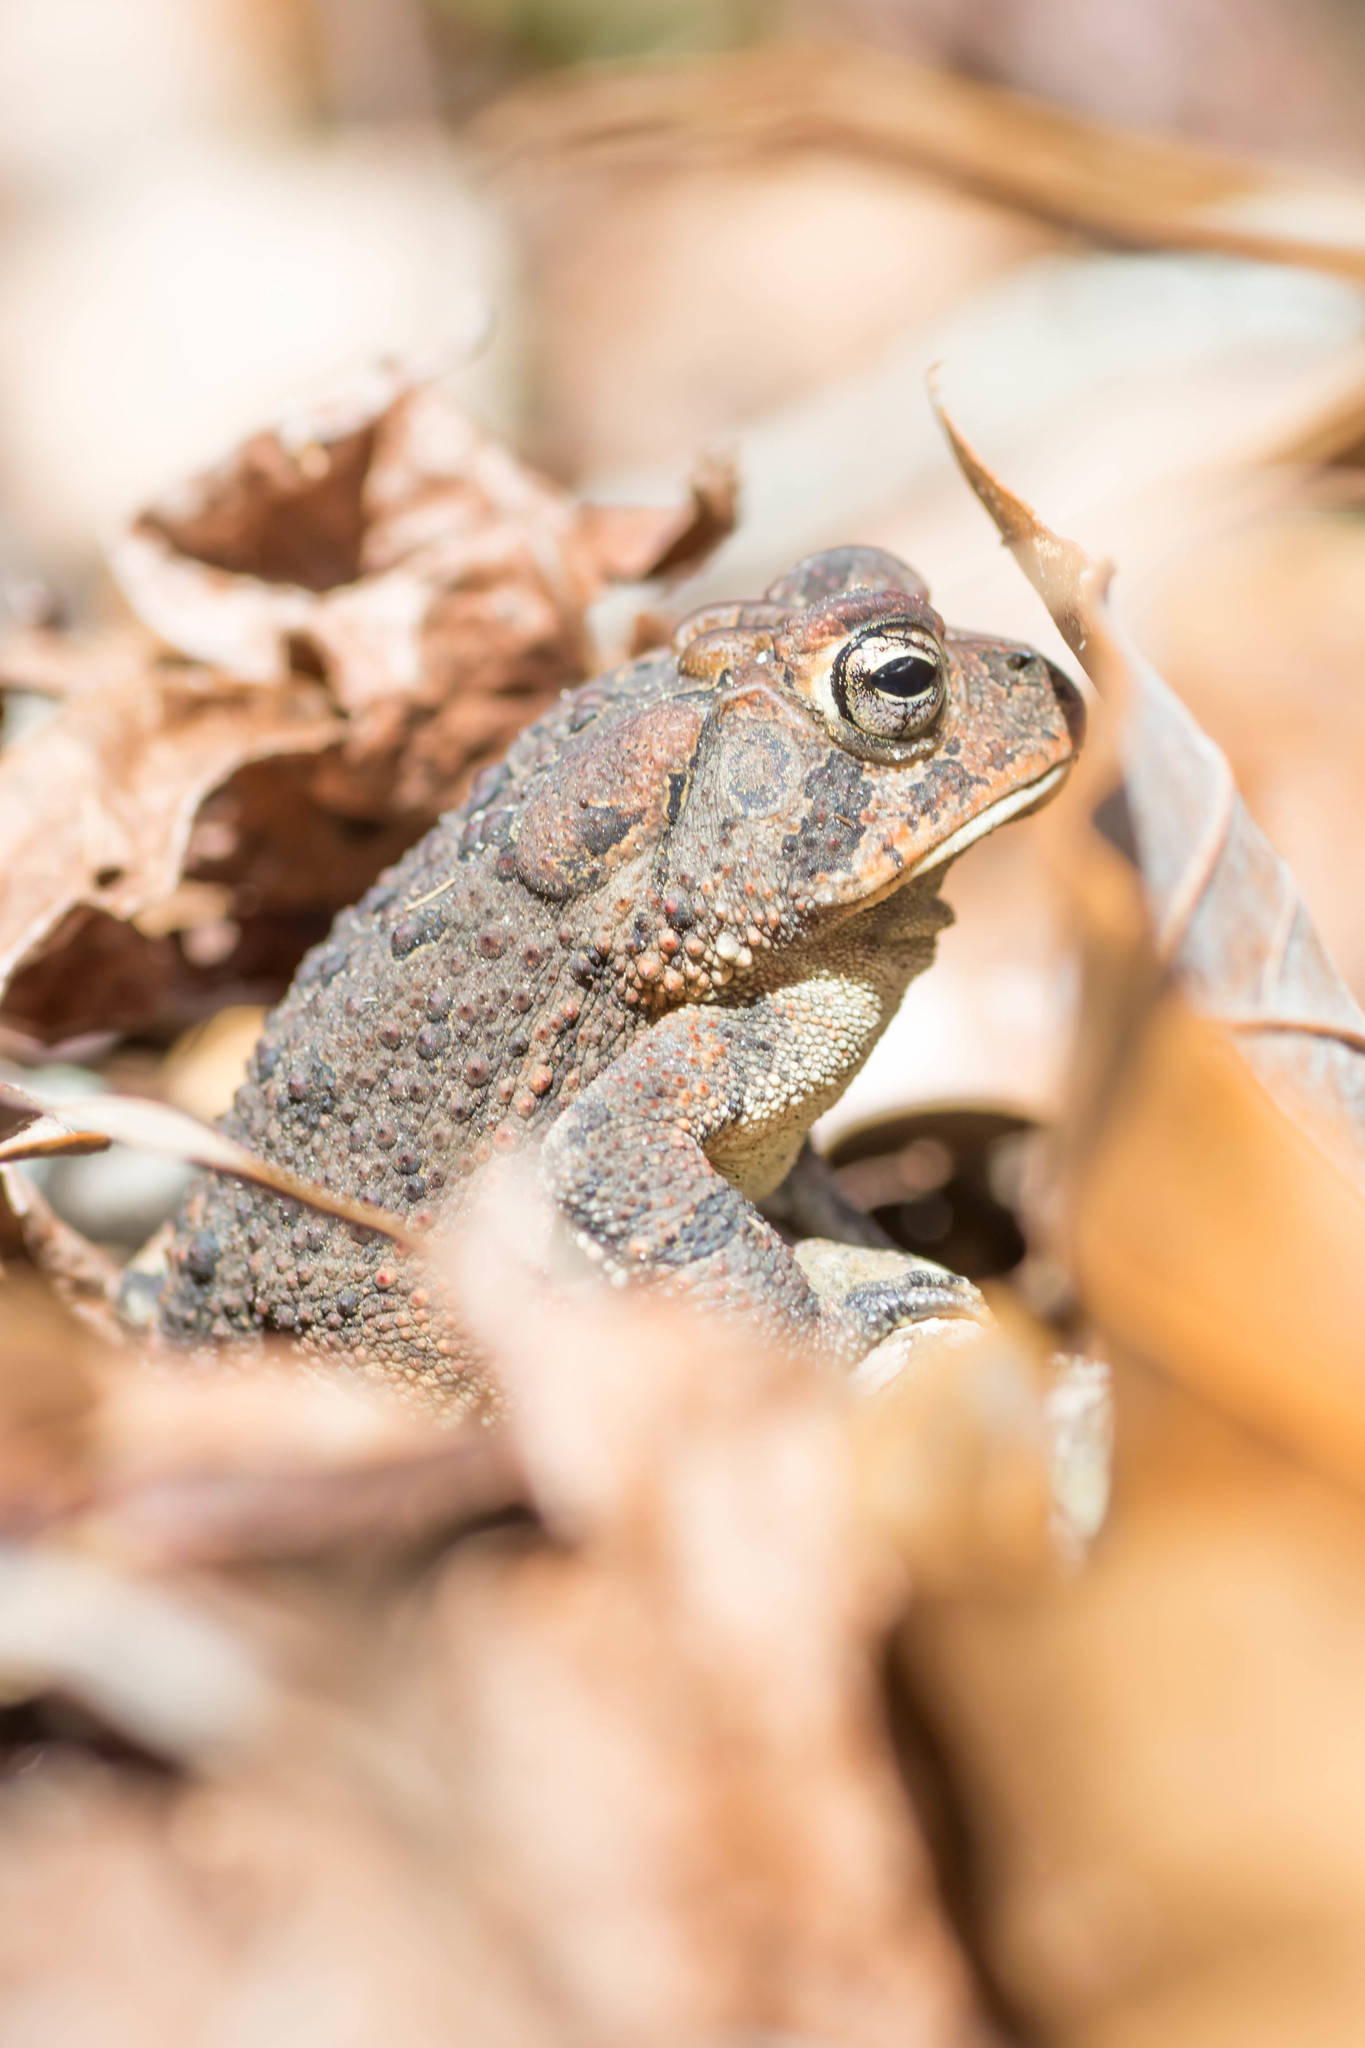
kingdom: Animalia
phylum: Chordata
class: Amphibia
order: Anura
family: Bufonidae
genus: Anaxyrus
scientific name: Anaxyrus terrestris
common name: Southern toad
